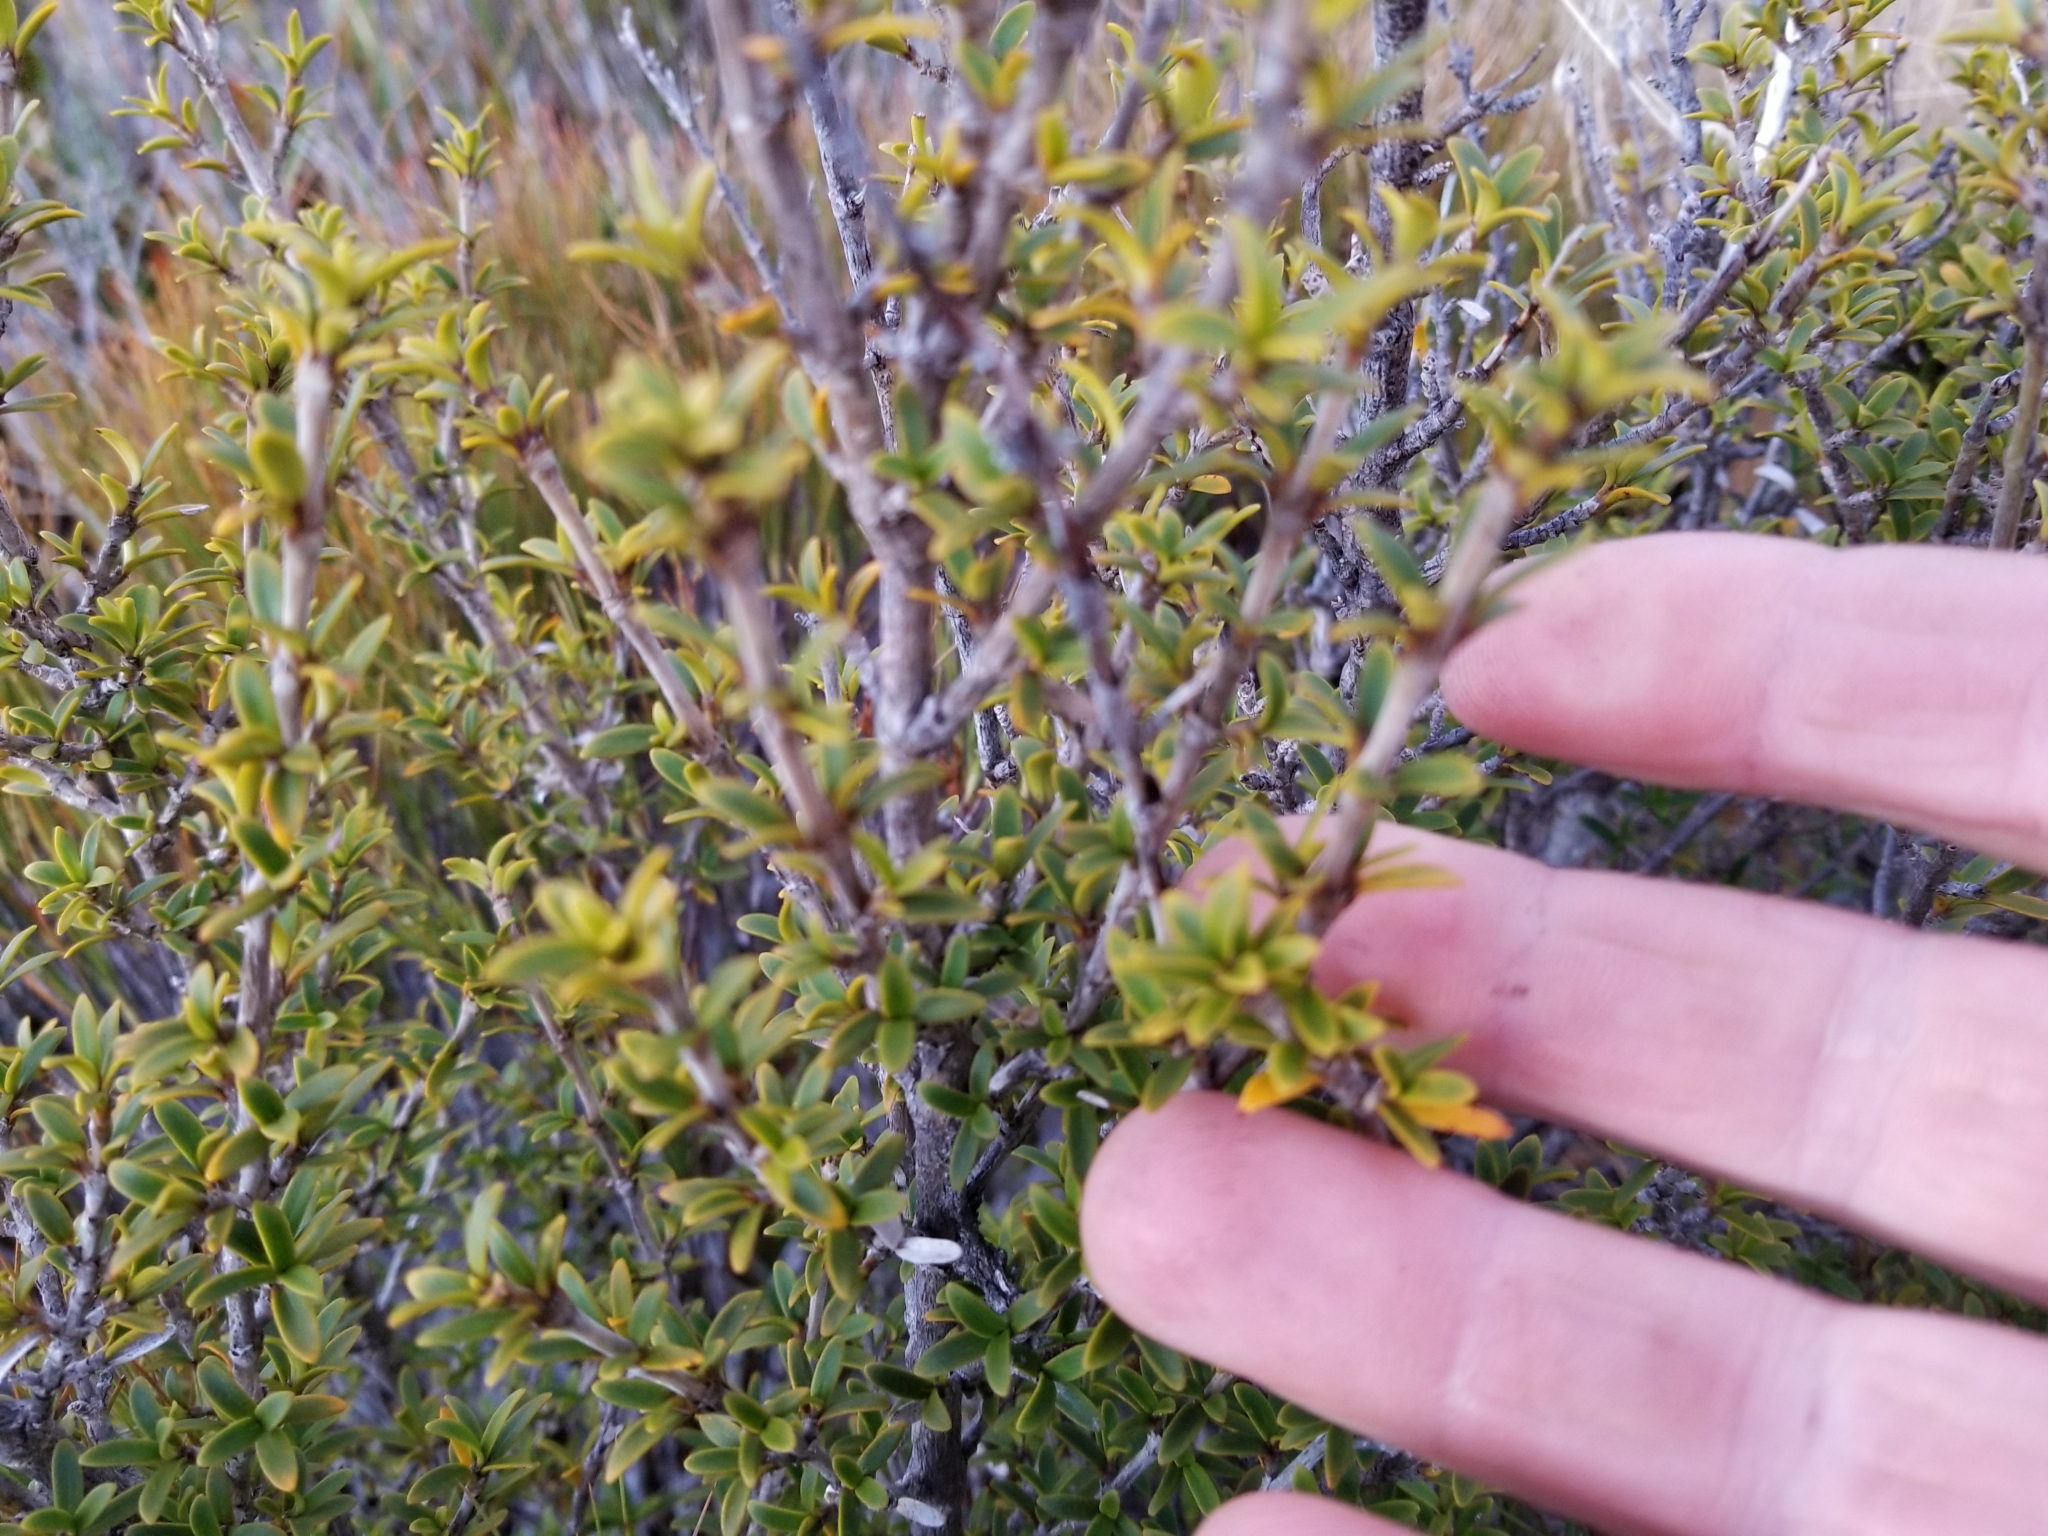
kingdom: Plantae
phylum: Tracheophyta
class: Magnoliopsida
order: Gentianales
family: Rubiaceae
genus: Coprosma
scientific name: Coprosma pseudocuneata
